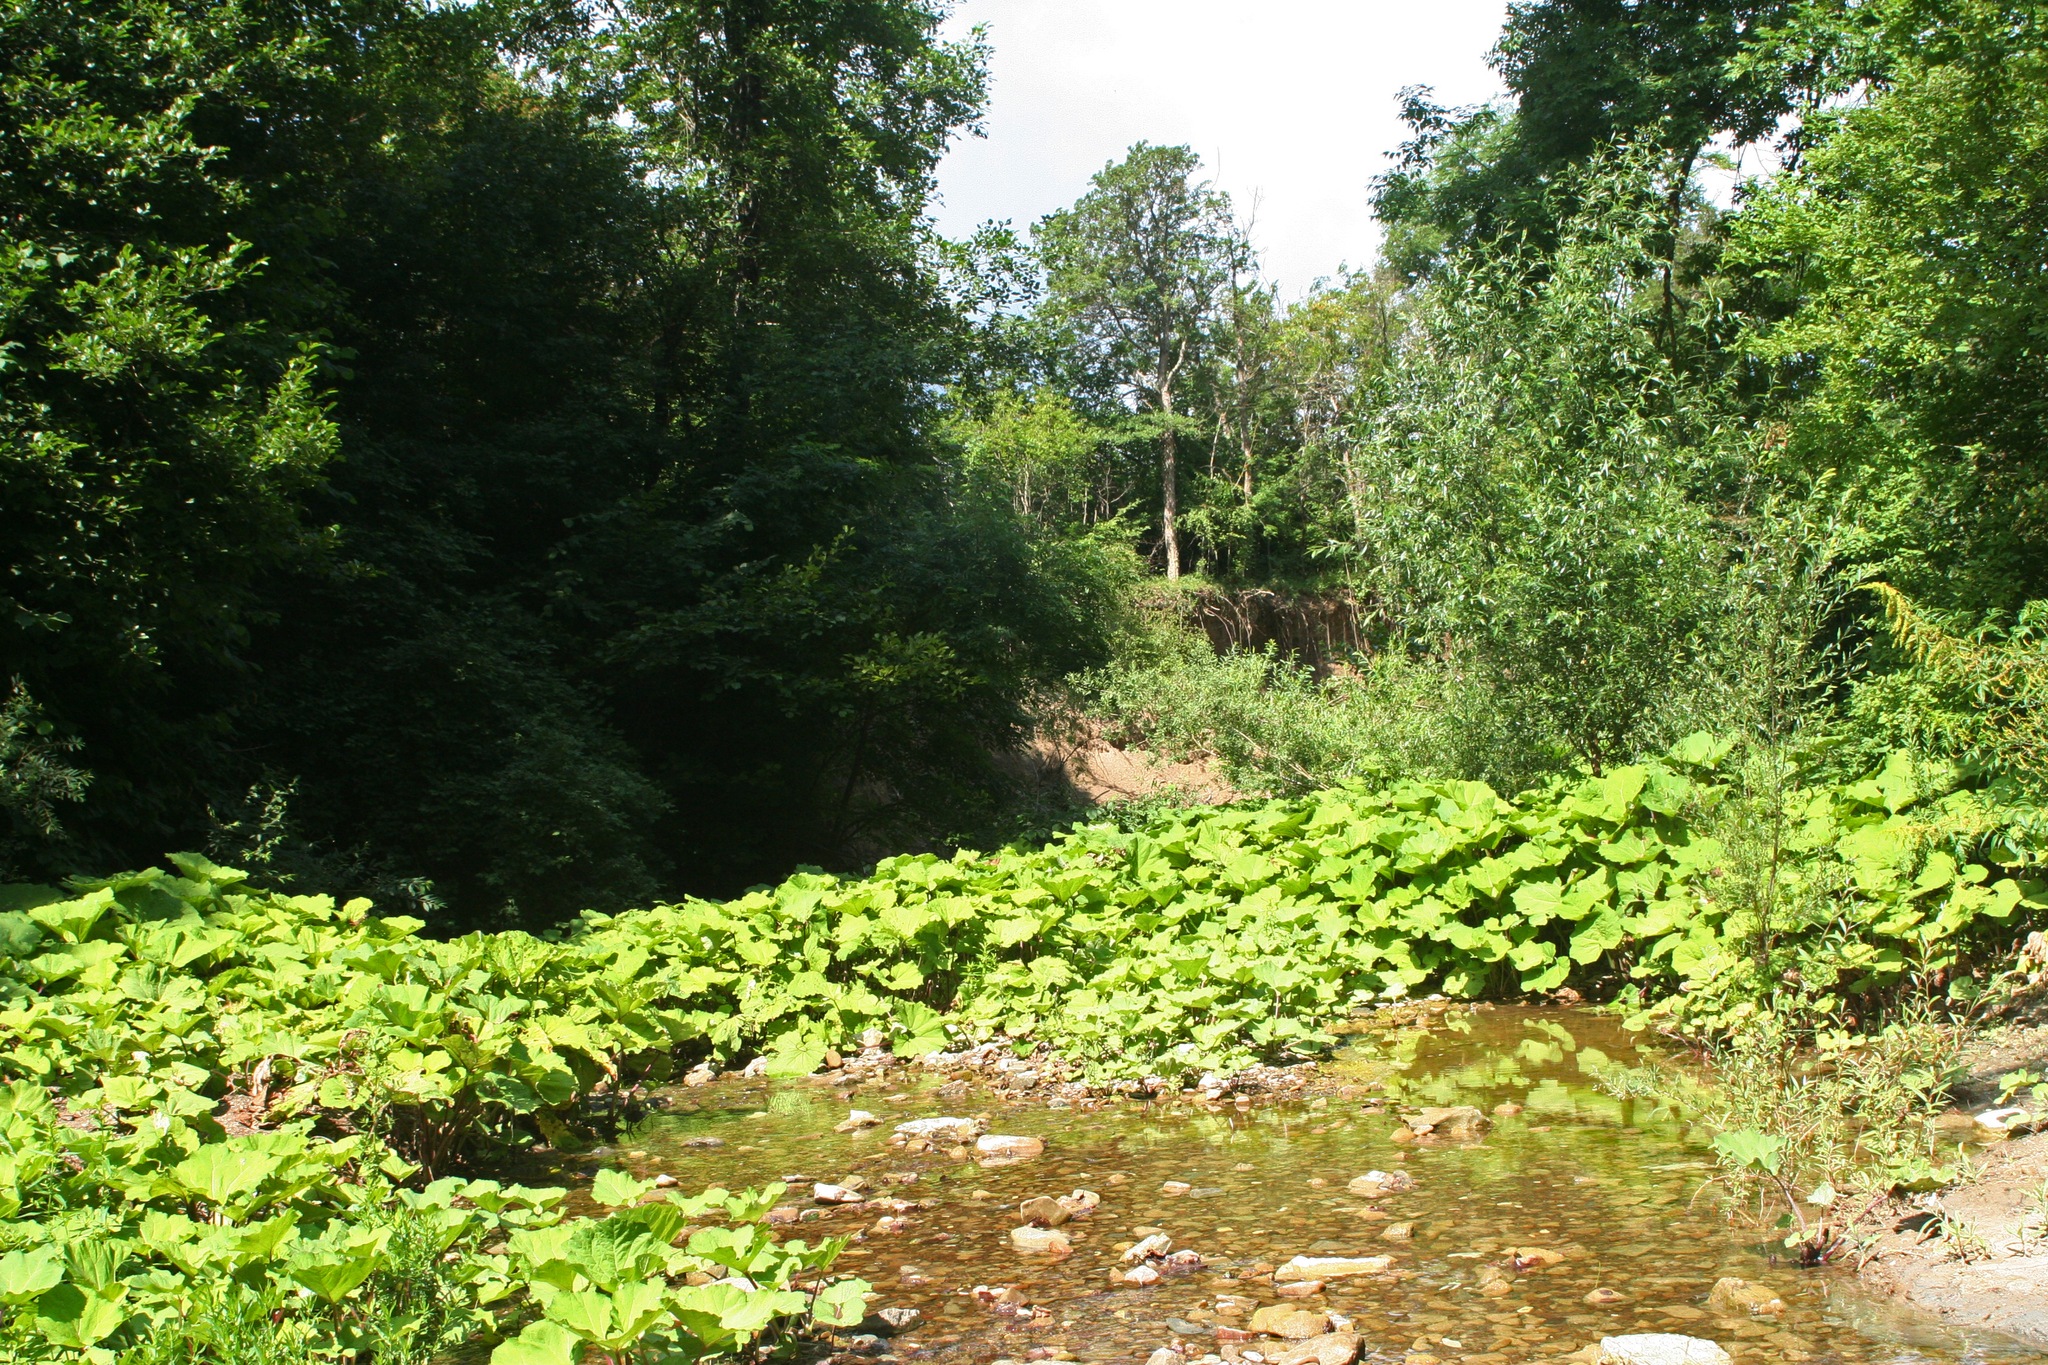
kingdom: Plantae
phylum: Tracheophyta
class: Magnoliopsida
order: Asterales
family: Asteraceae
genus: Petasites
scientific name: Petasites albus
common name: White butterbur
